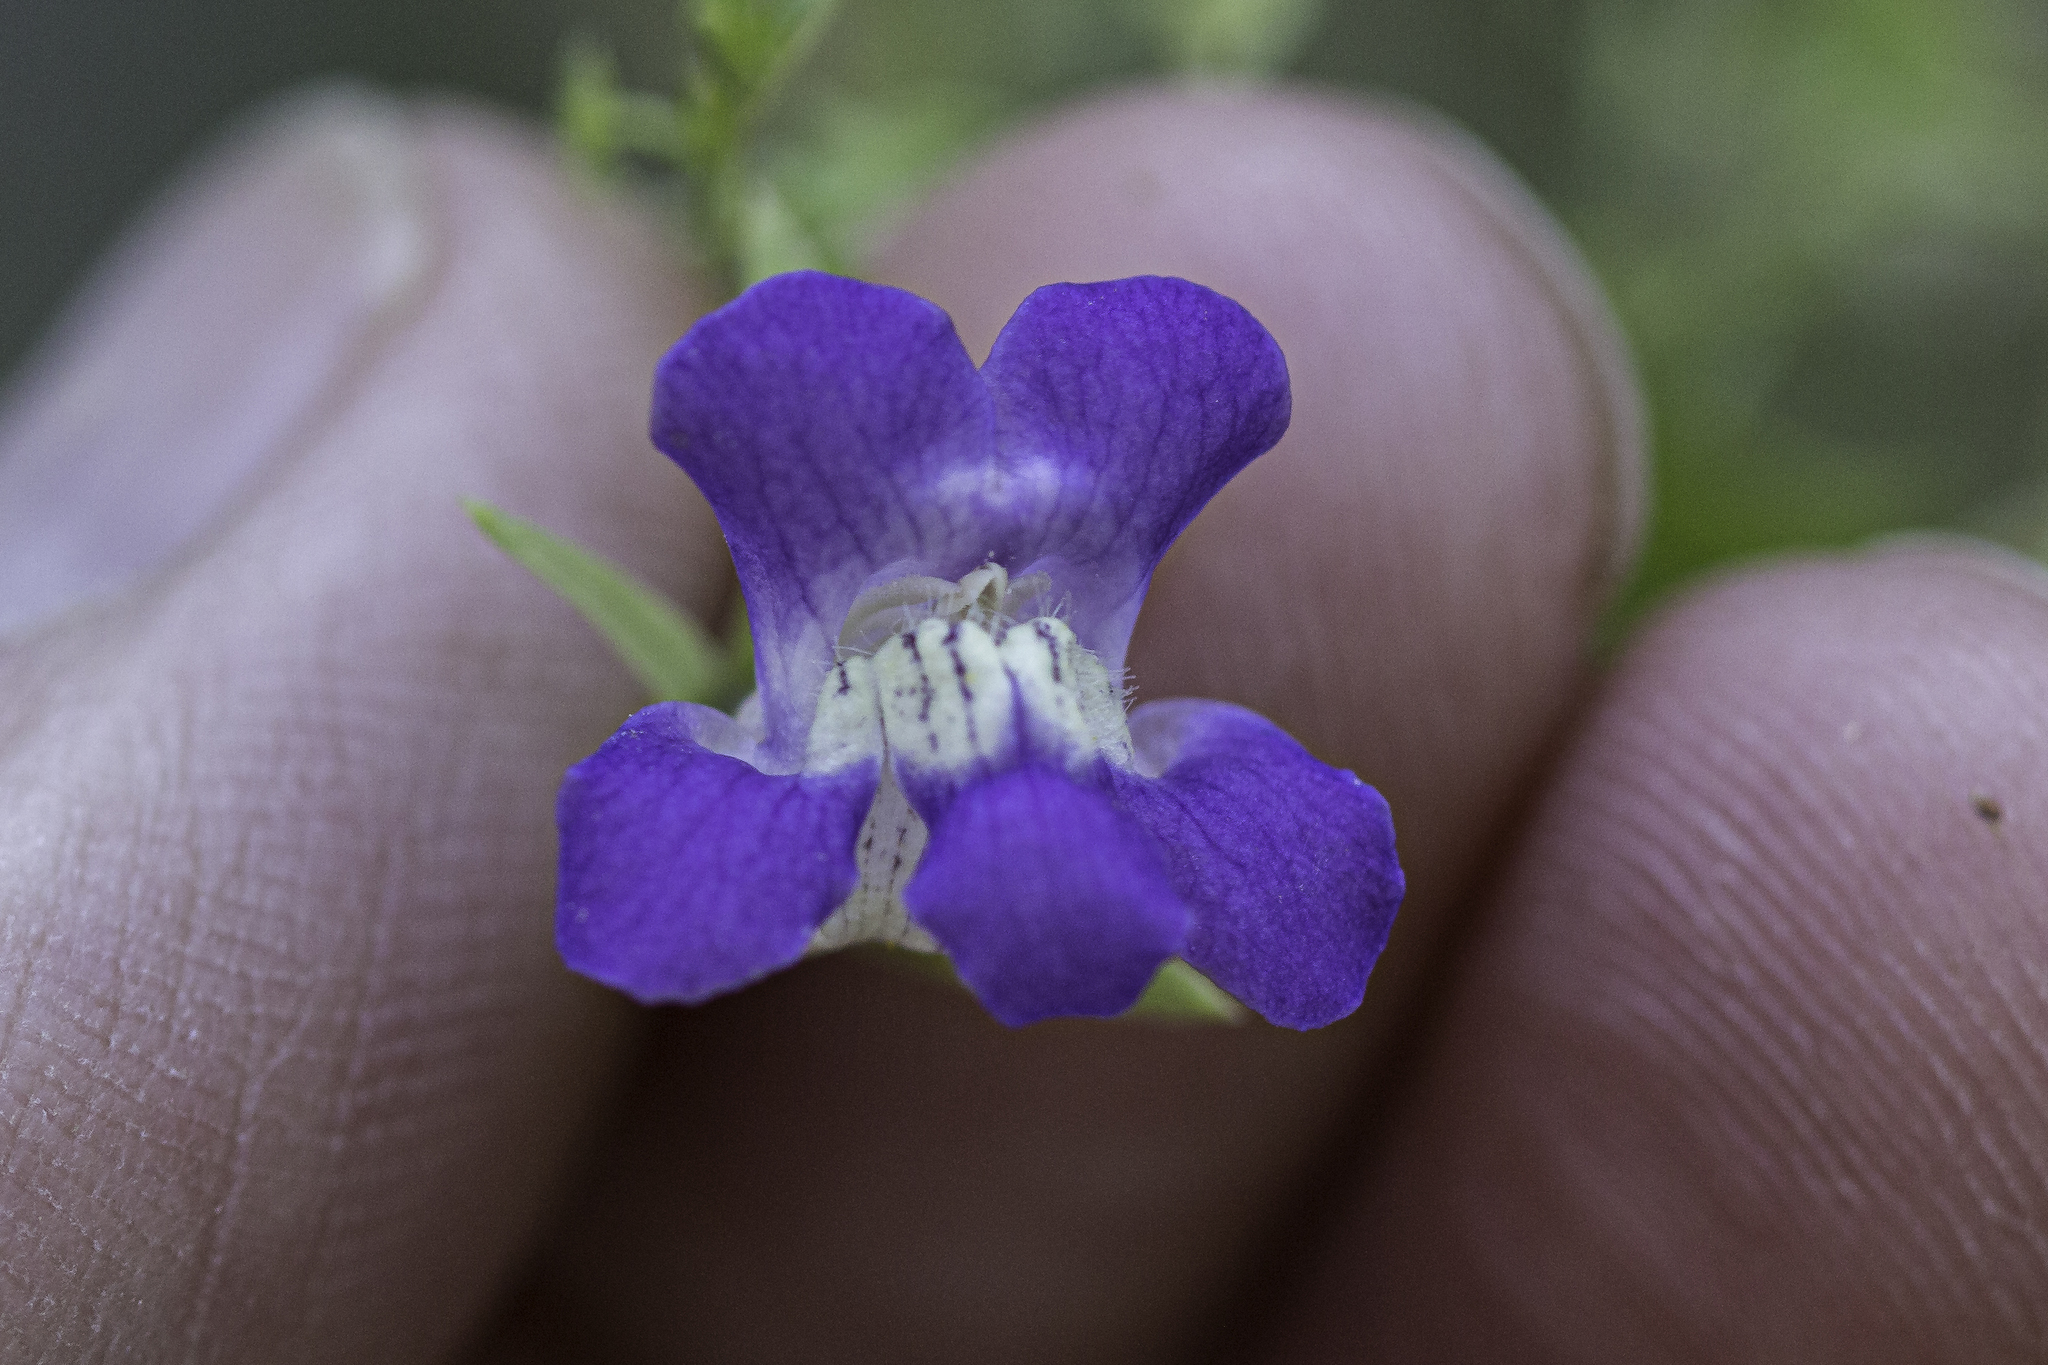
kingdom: Plantae
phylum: Tracheophyta
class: Magnoliopsida
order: Lamiales
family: Plantaginaceae
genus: Maurandella
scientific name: Maurandella antirrhiniflora
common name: Violet twining-snapdragon
